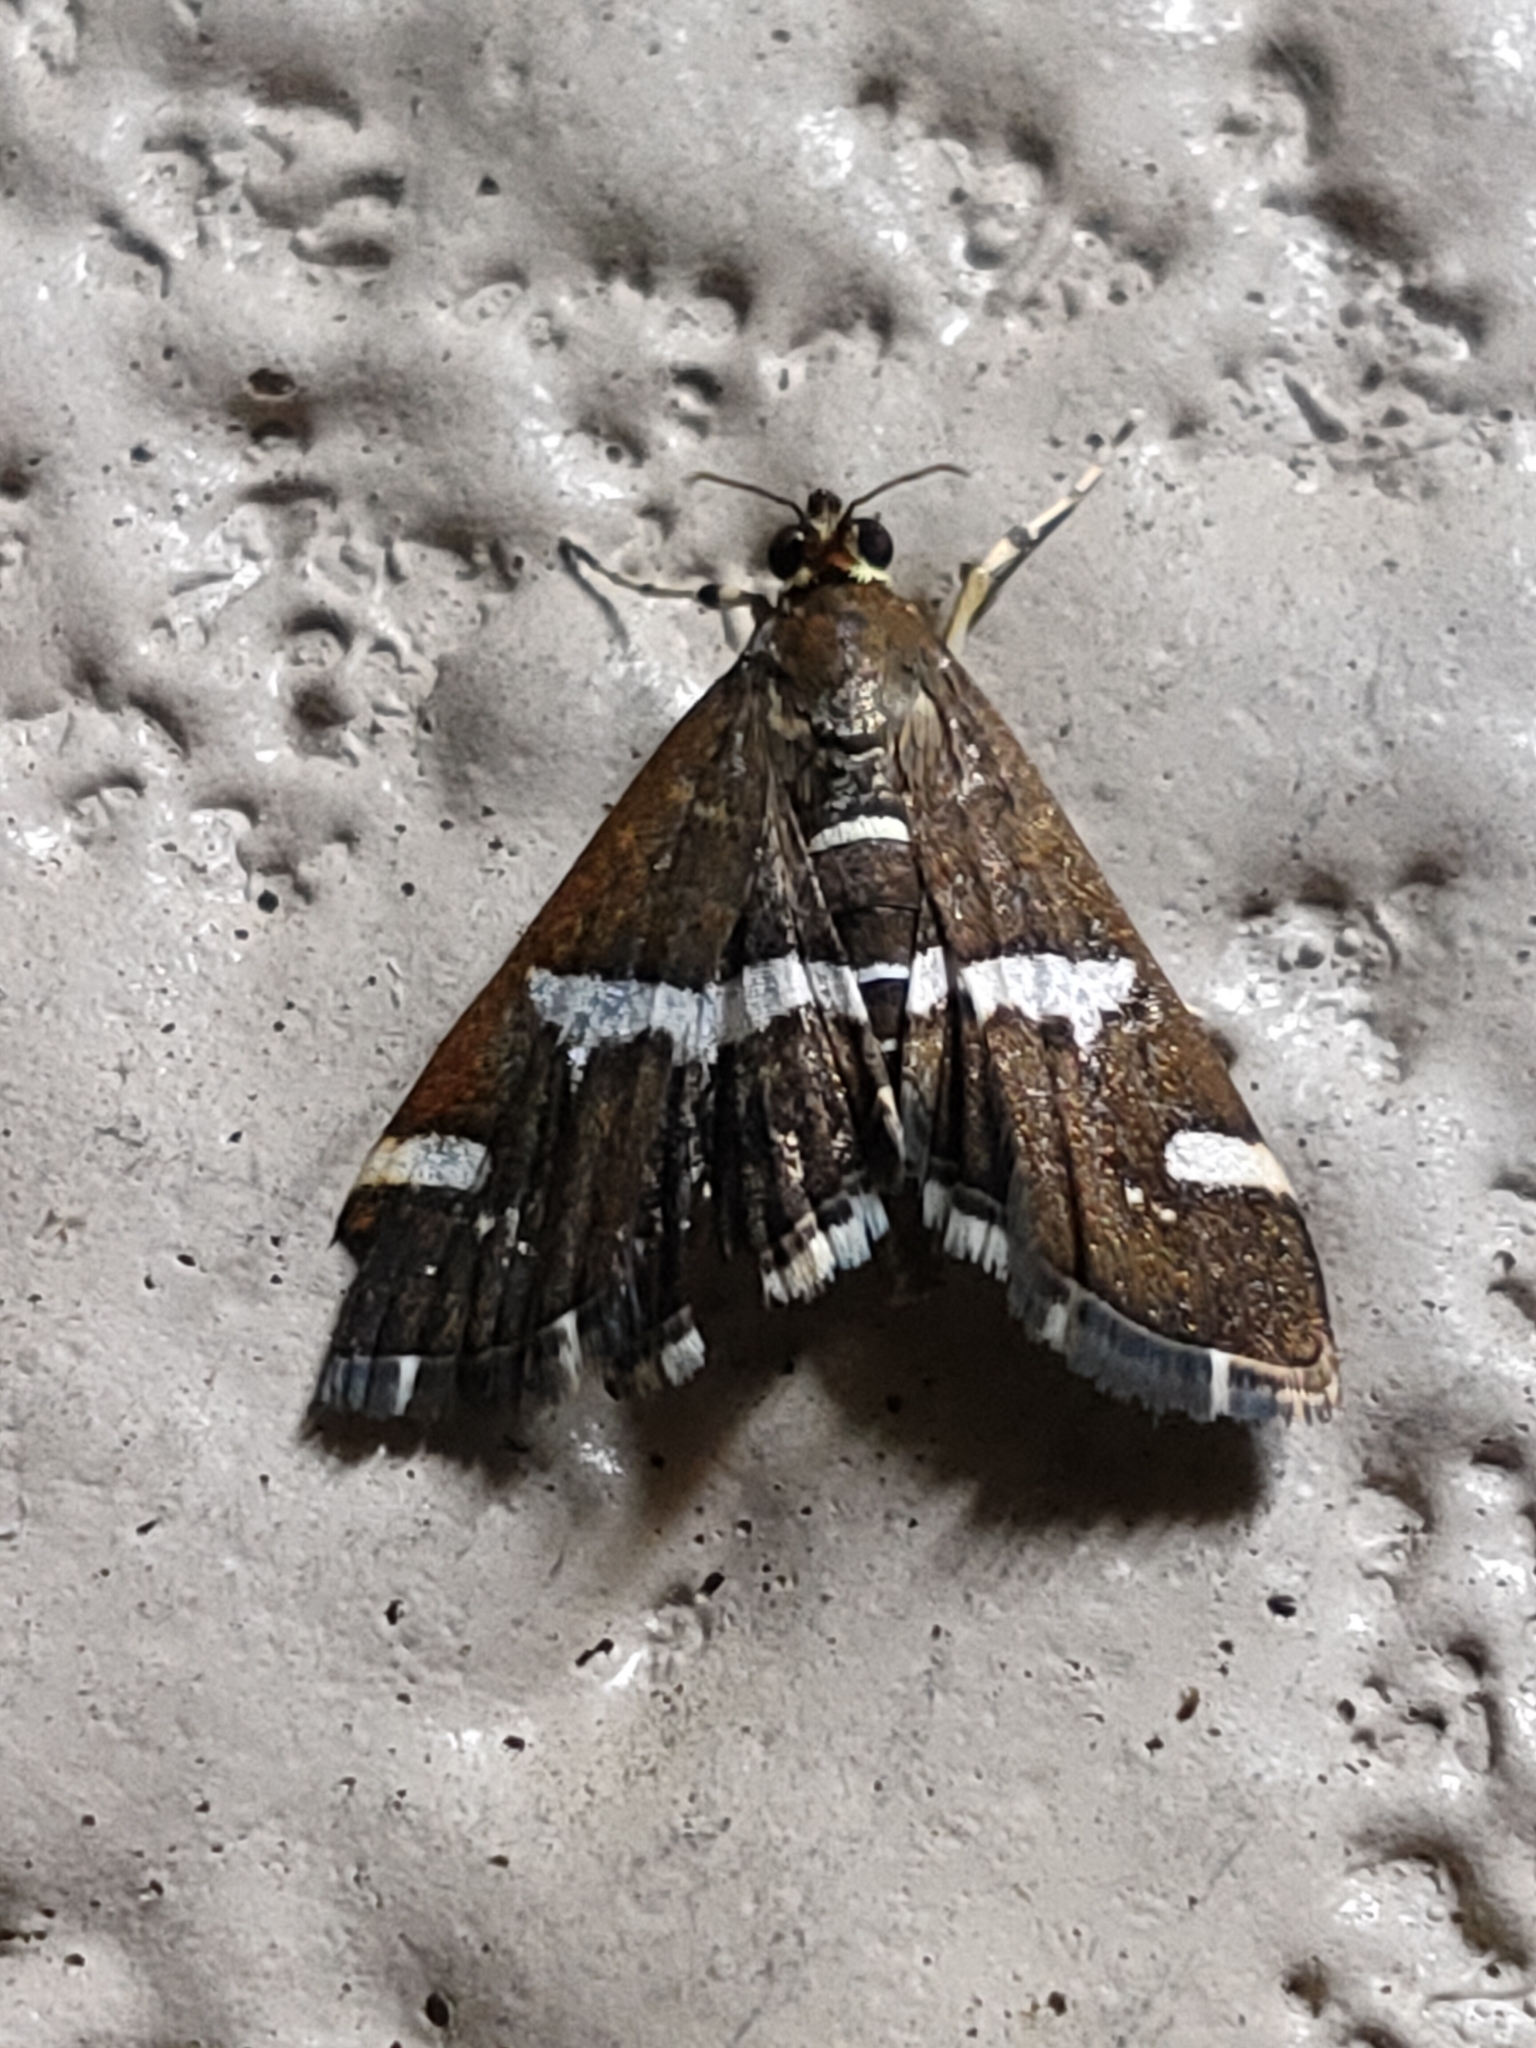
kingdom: Animalia
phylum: Arthropoda
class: Insecta
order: Lepidoptera
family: Crambidae
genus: Spoladea
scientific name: Spoladea recurvalis
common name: Beet webworm moth
